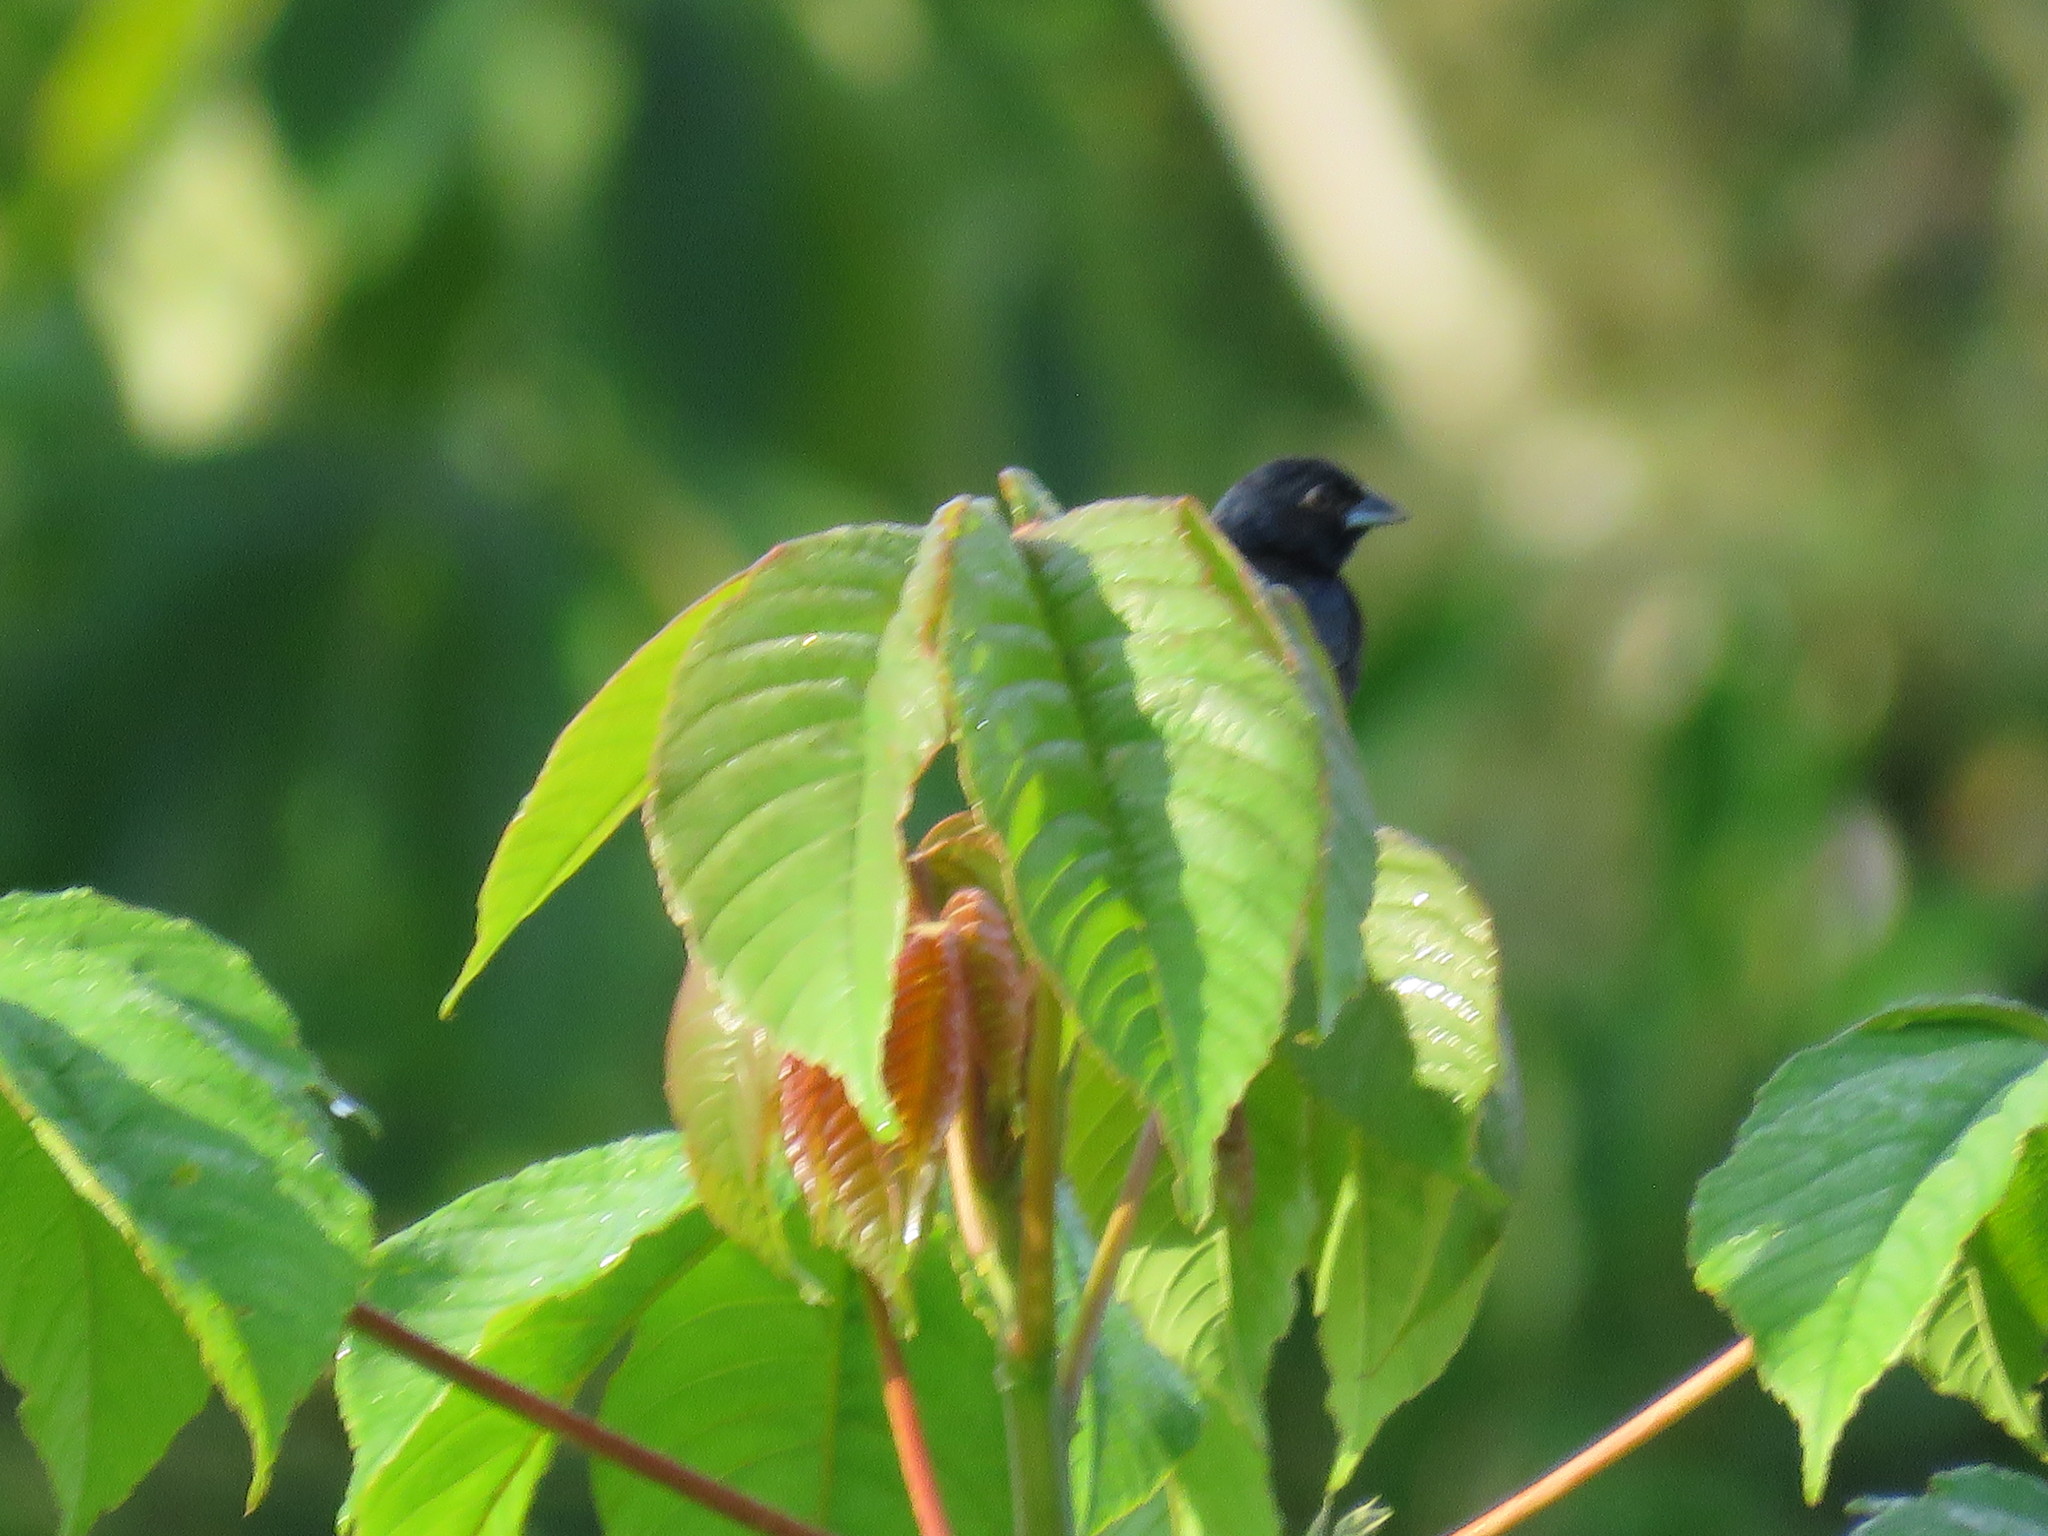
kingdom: Animalia
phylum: Chordata
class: Aves
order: Passeriformes
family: Thraupidae
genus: Volatinia
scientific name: Volatinia jacarina
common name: Blue-black grassquit
